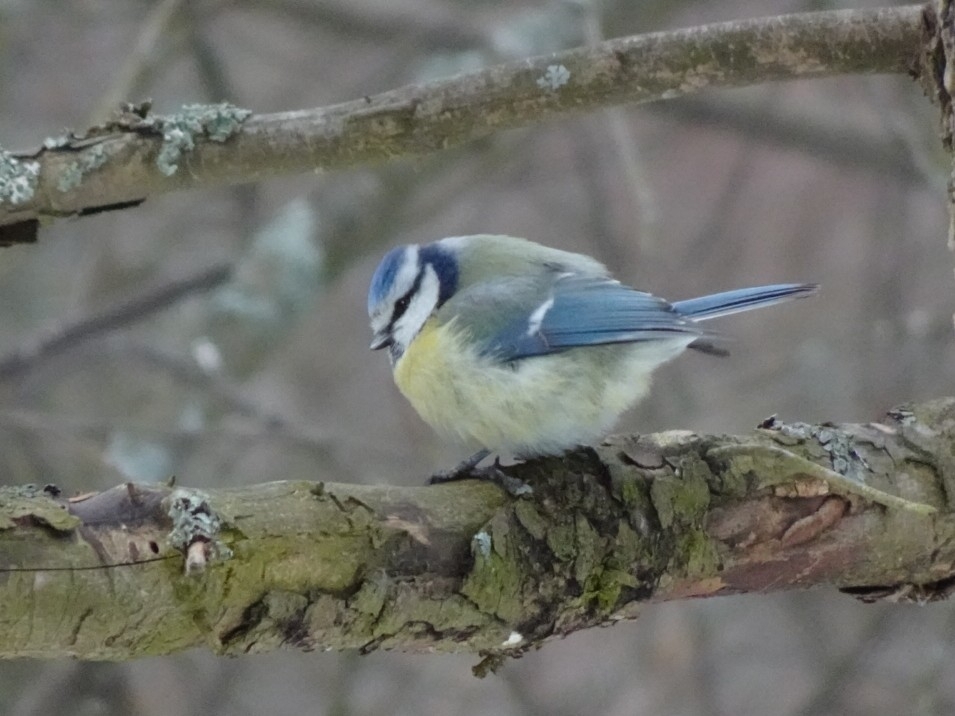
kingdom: Animalia
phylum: Chordata
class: Aves
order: Passeriformes
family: Paridae
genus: Cyanistes
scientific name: Cyanistes caeruleus
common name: Eurasian blue tit
